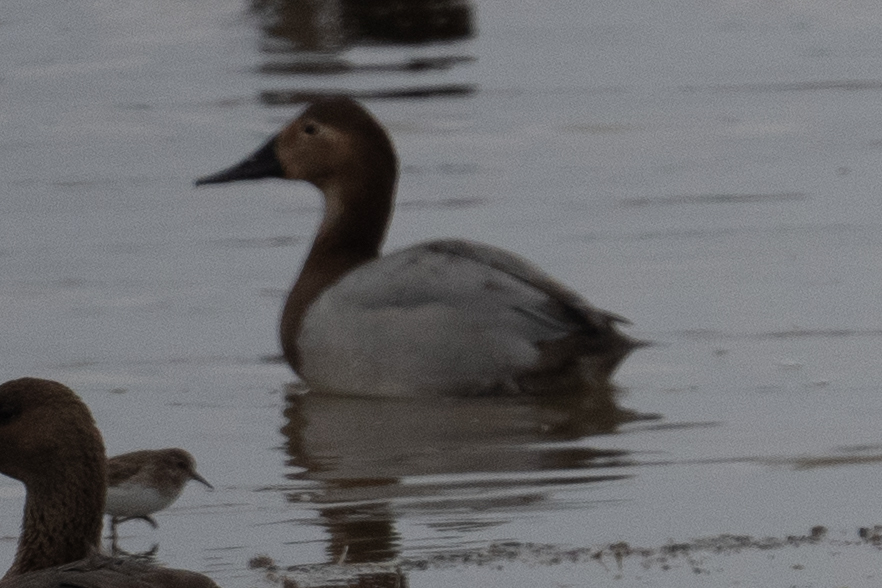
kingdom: Animalia
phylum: Chordata
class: Aves
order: Anseriformes
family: Anatidae
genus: Aythya
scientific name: Aythya valisineria
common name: Canvasback
